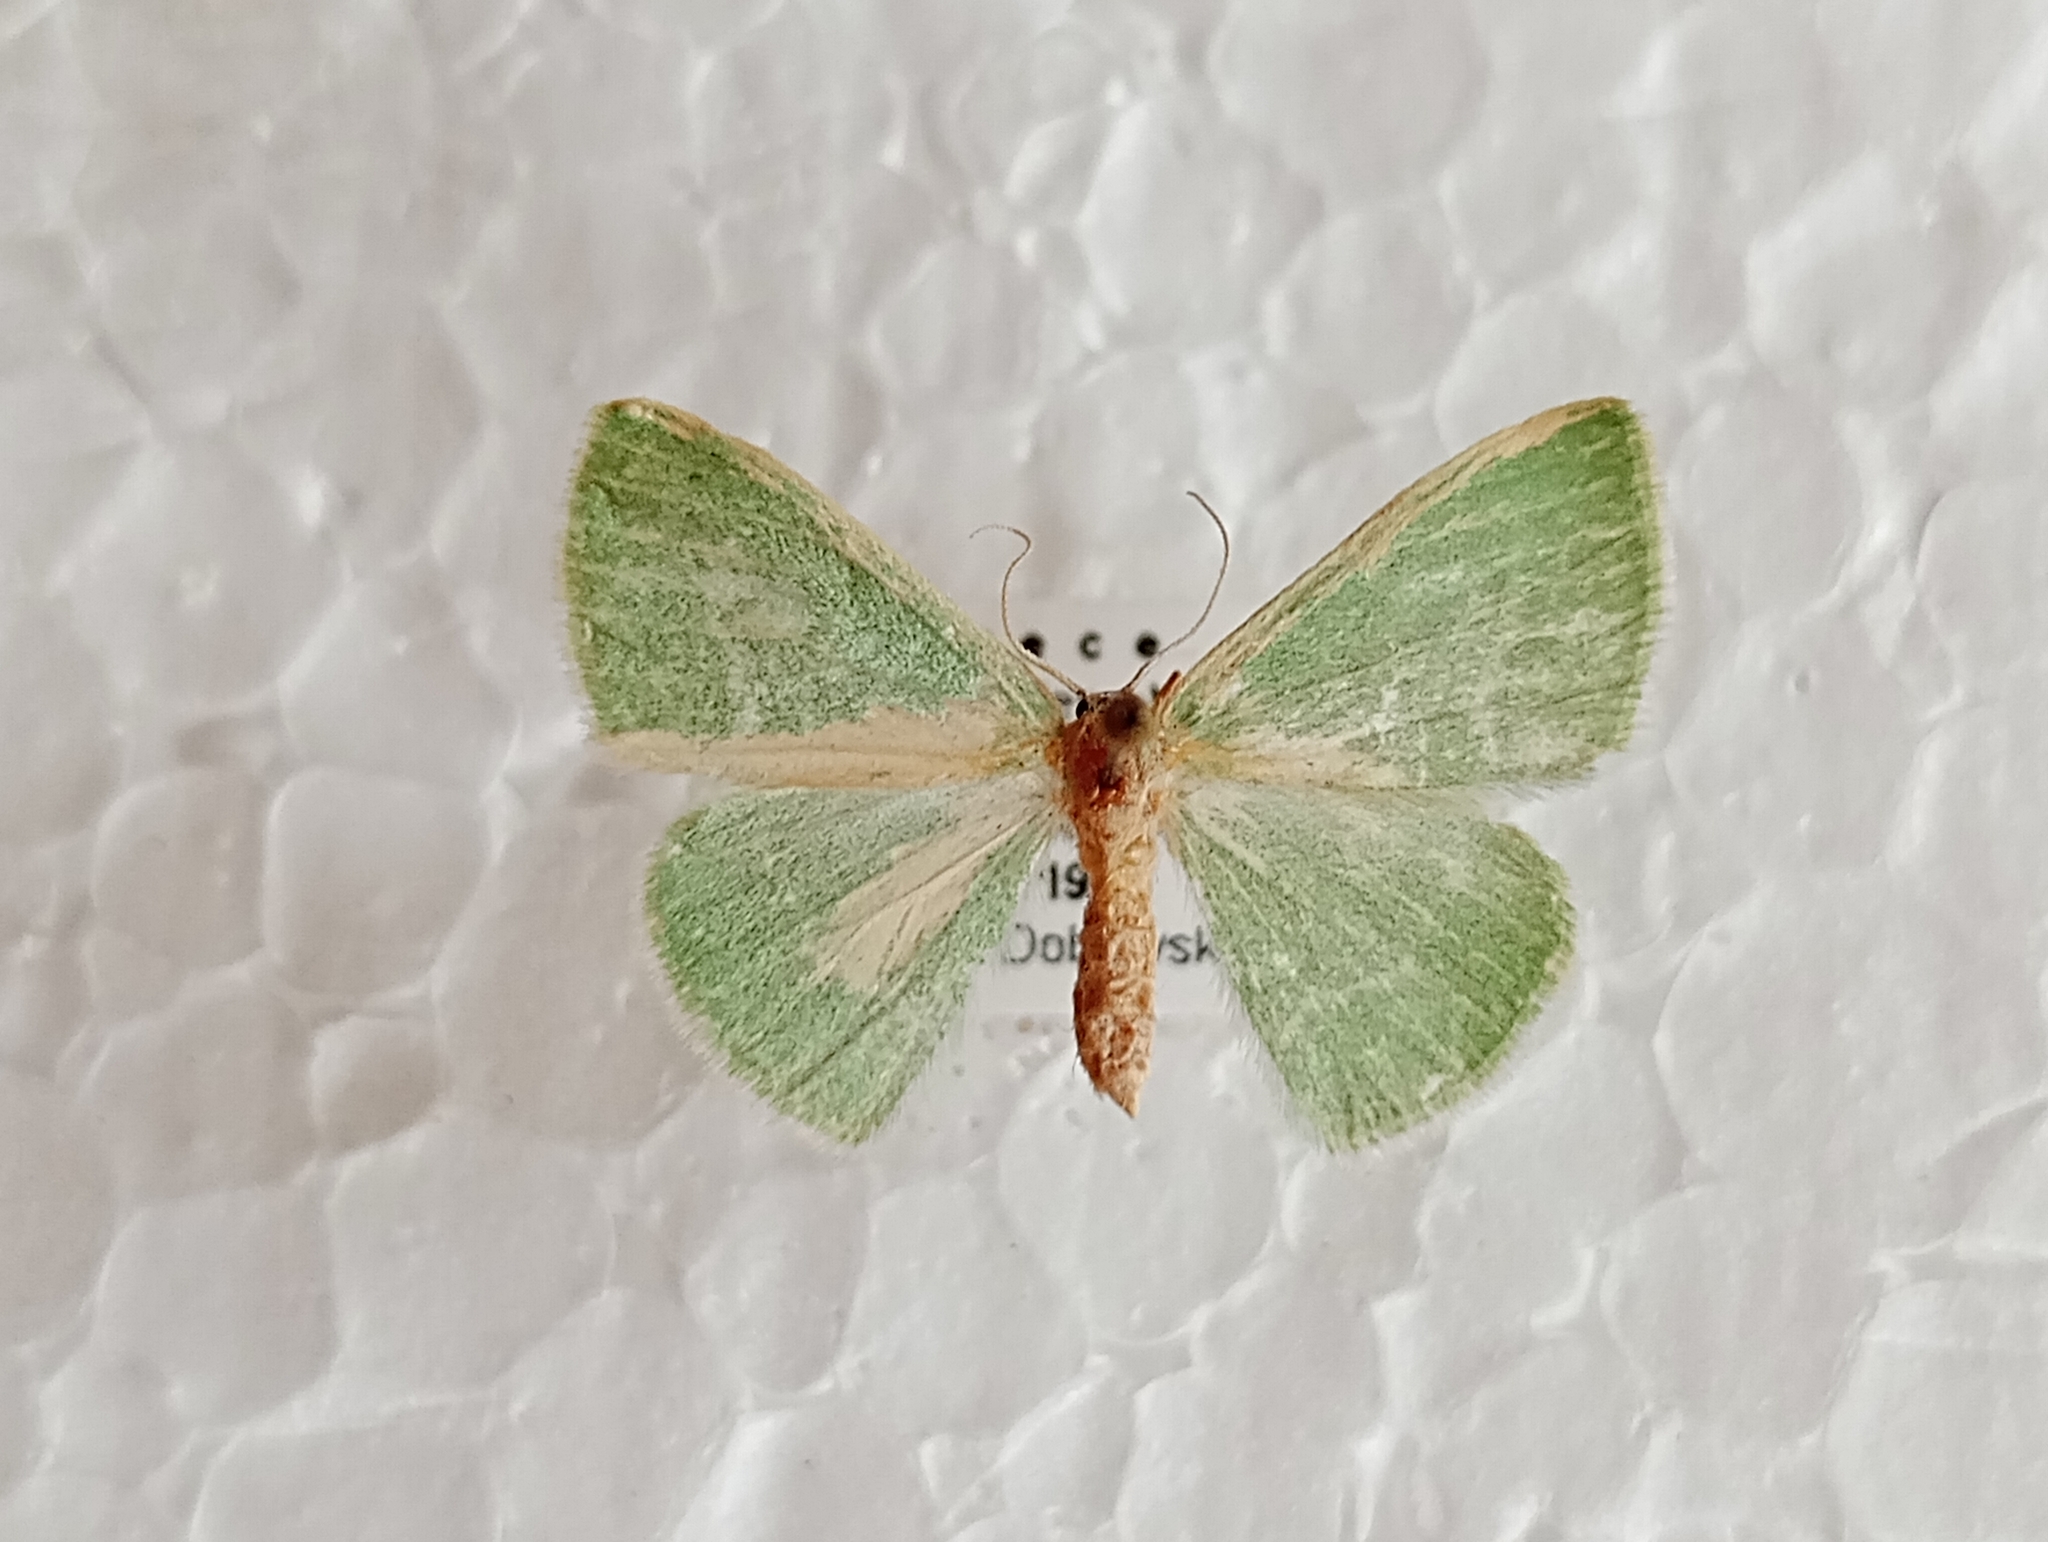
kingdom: Animalia
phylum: Arthropoda
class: Insecta
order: Lepidoptera
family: Geometridae
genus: Xenochlorodes
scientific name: Xenochlorodes olympiaria
